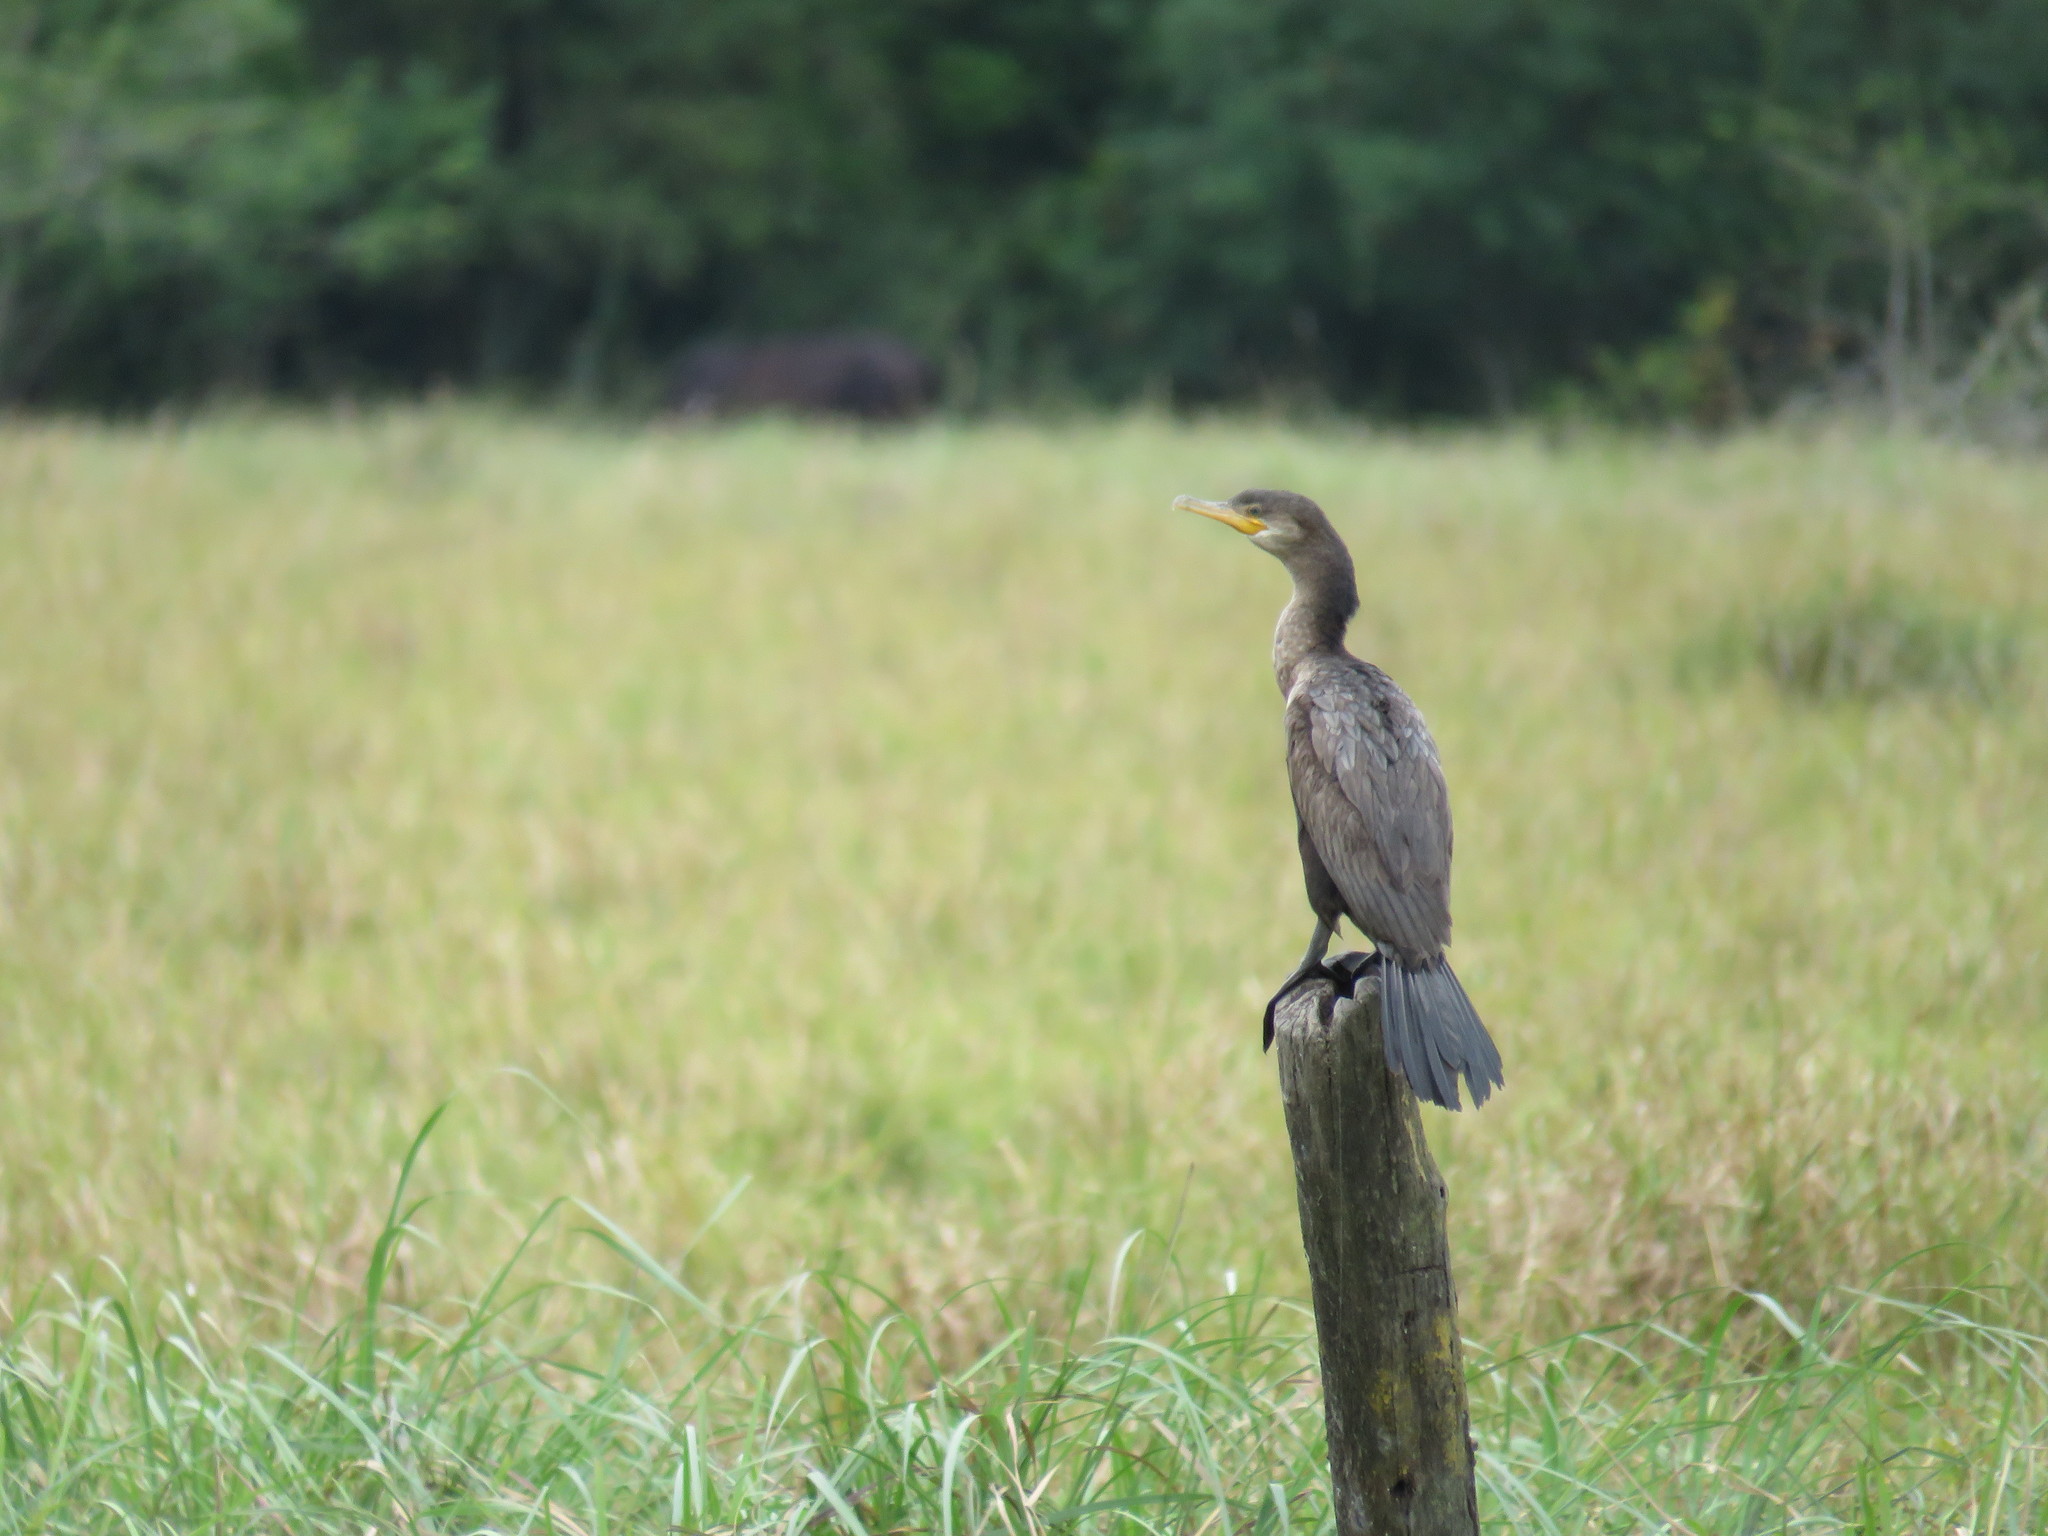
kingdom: Animalia
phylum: Chordata
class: Aves
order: Suliformes
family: Phalacrocoracidae
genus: Phalacrocorax
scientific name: Phalacrocorax brasilianus
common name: Neotropic cormorant
